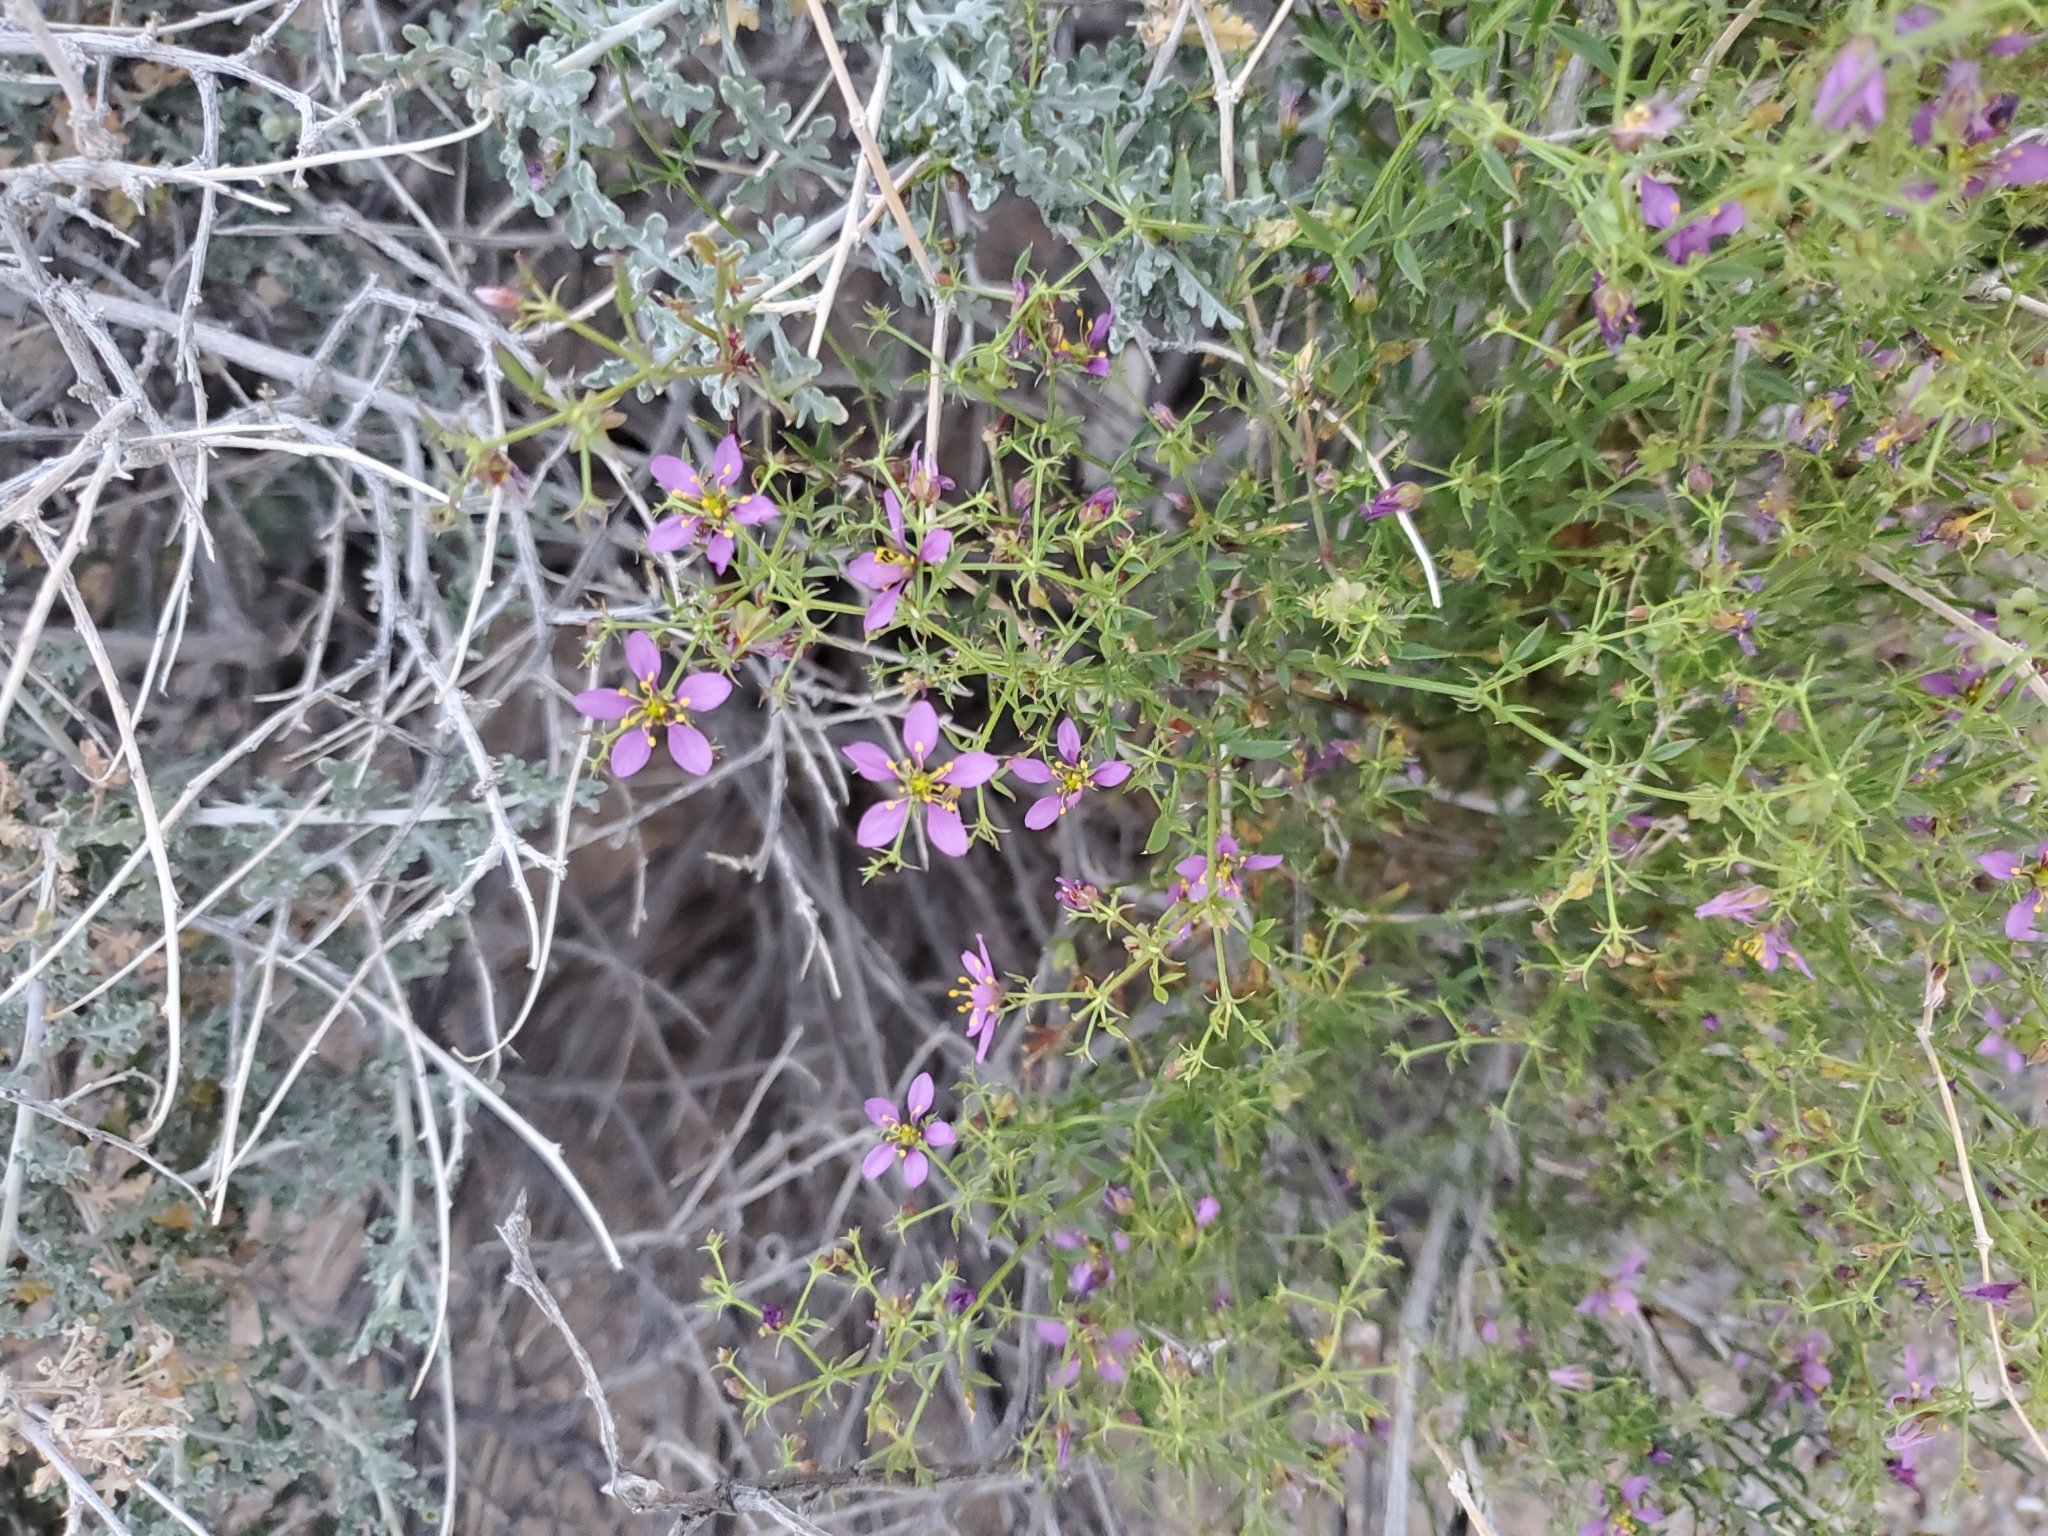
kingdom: Plantae
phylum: Tracheophyta
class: Magnoliopsida
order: Zygophyllales
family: Zygophyllaceae
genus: Fagonia
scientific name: Fagonia laevis
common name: California fagonbush
